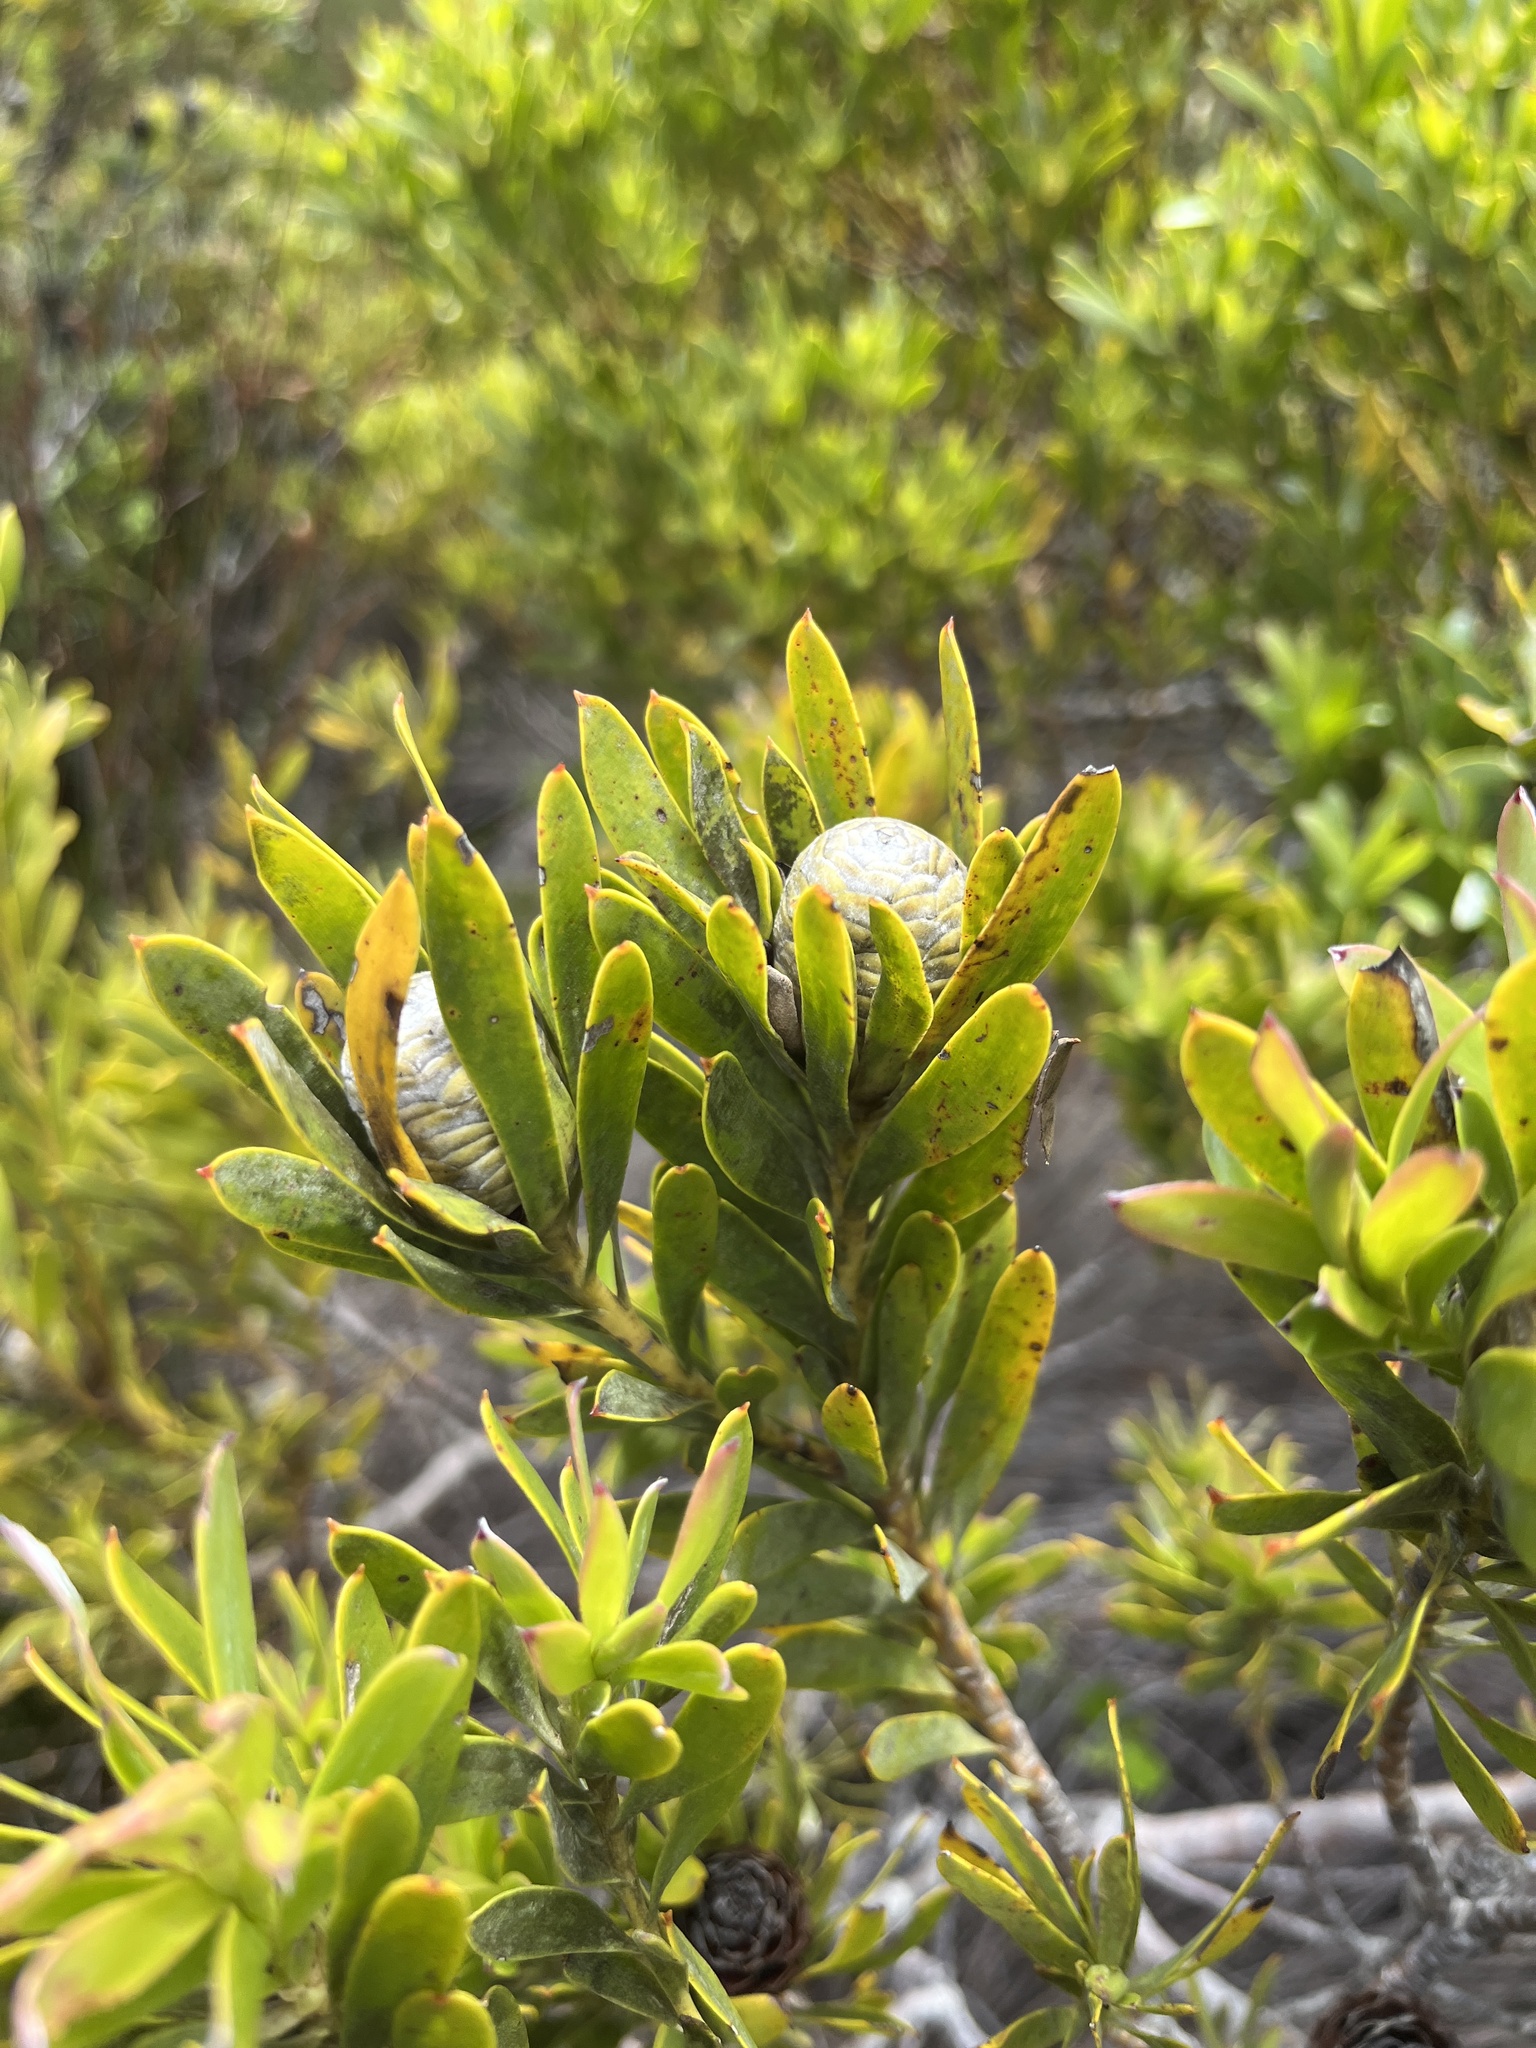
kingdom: Plantae
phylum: Tracheophyta
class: Magnoliopsida
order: Proteales
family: Proteaceae
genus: Leucadendron
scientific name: Leucadendron meridianum
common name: Limestone conebush
